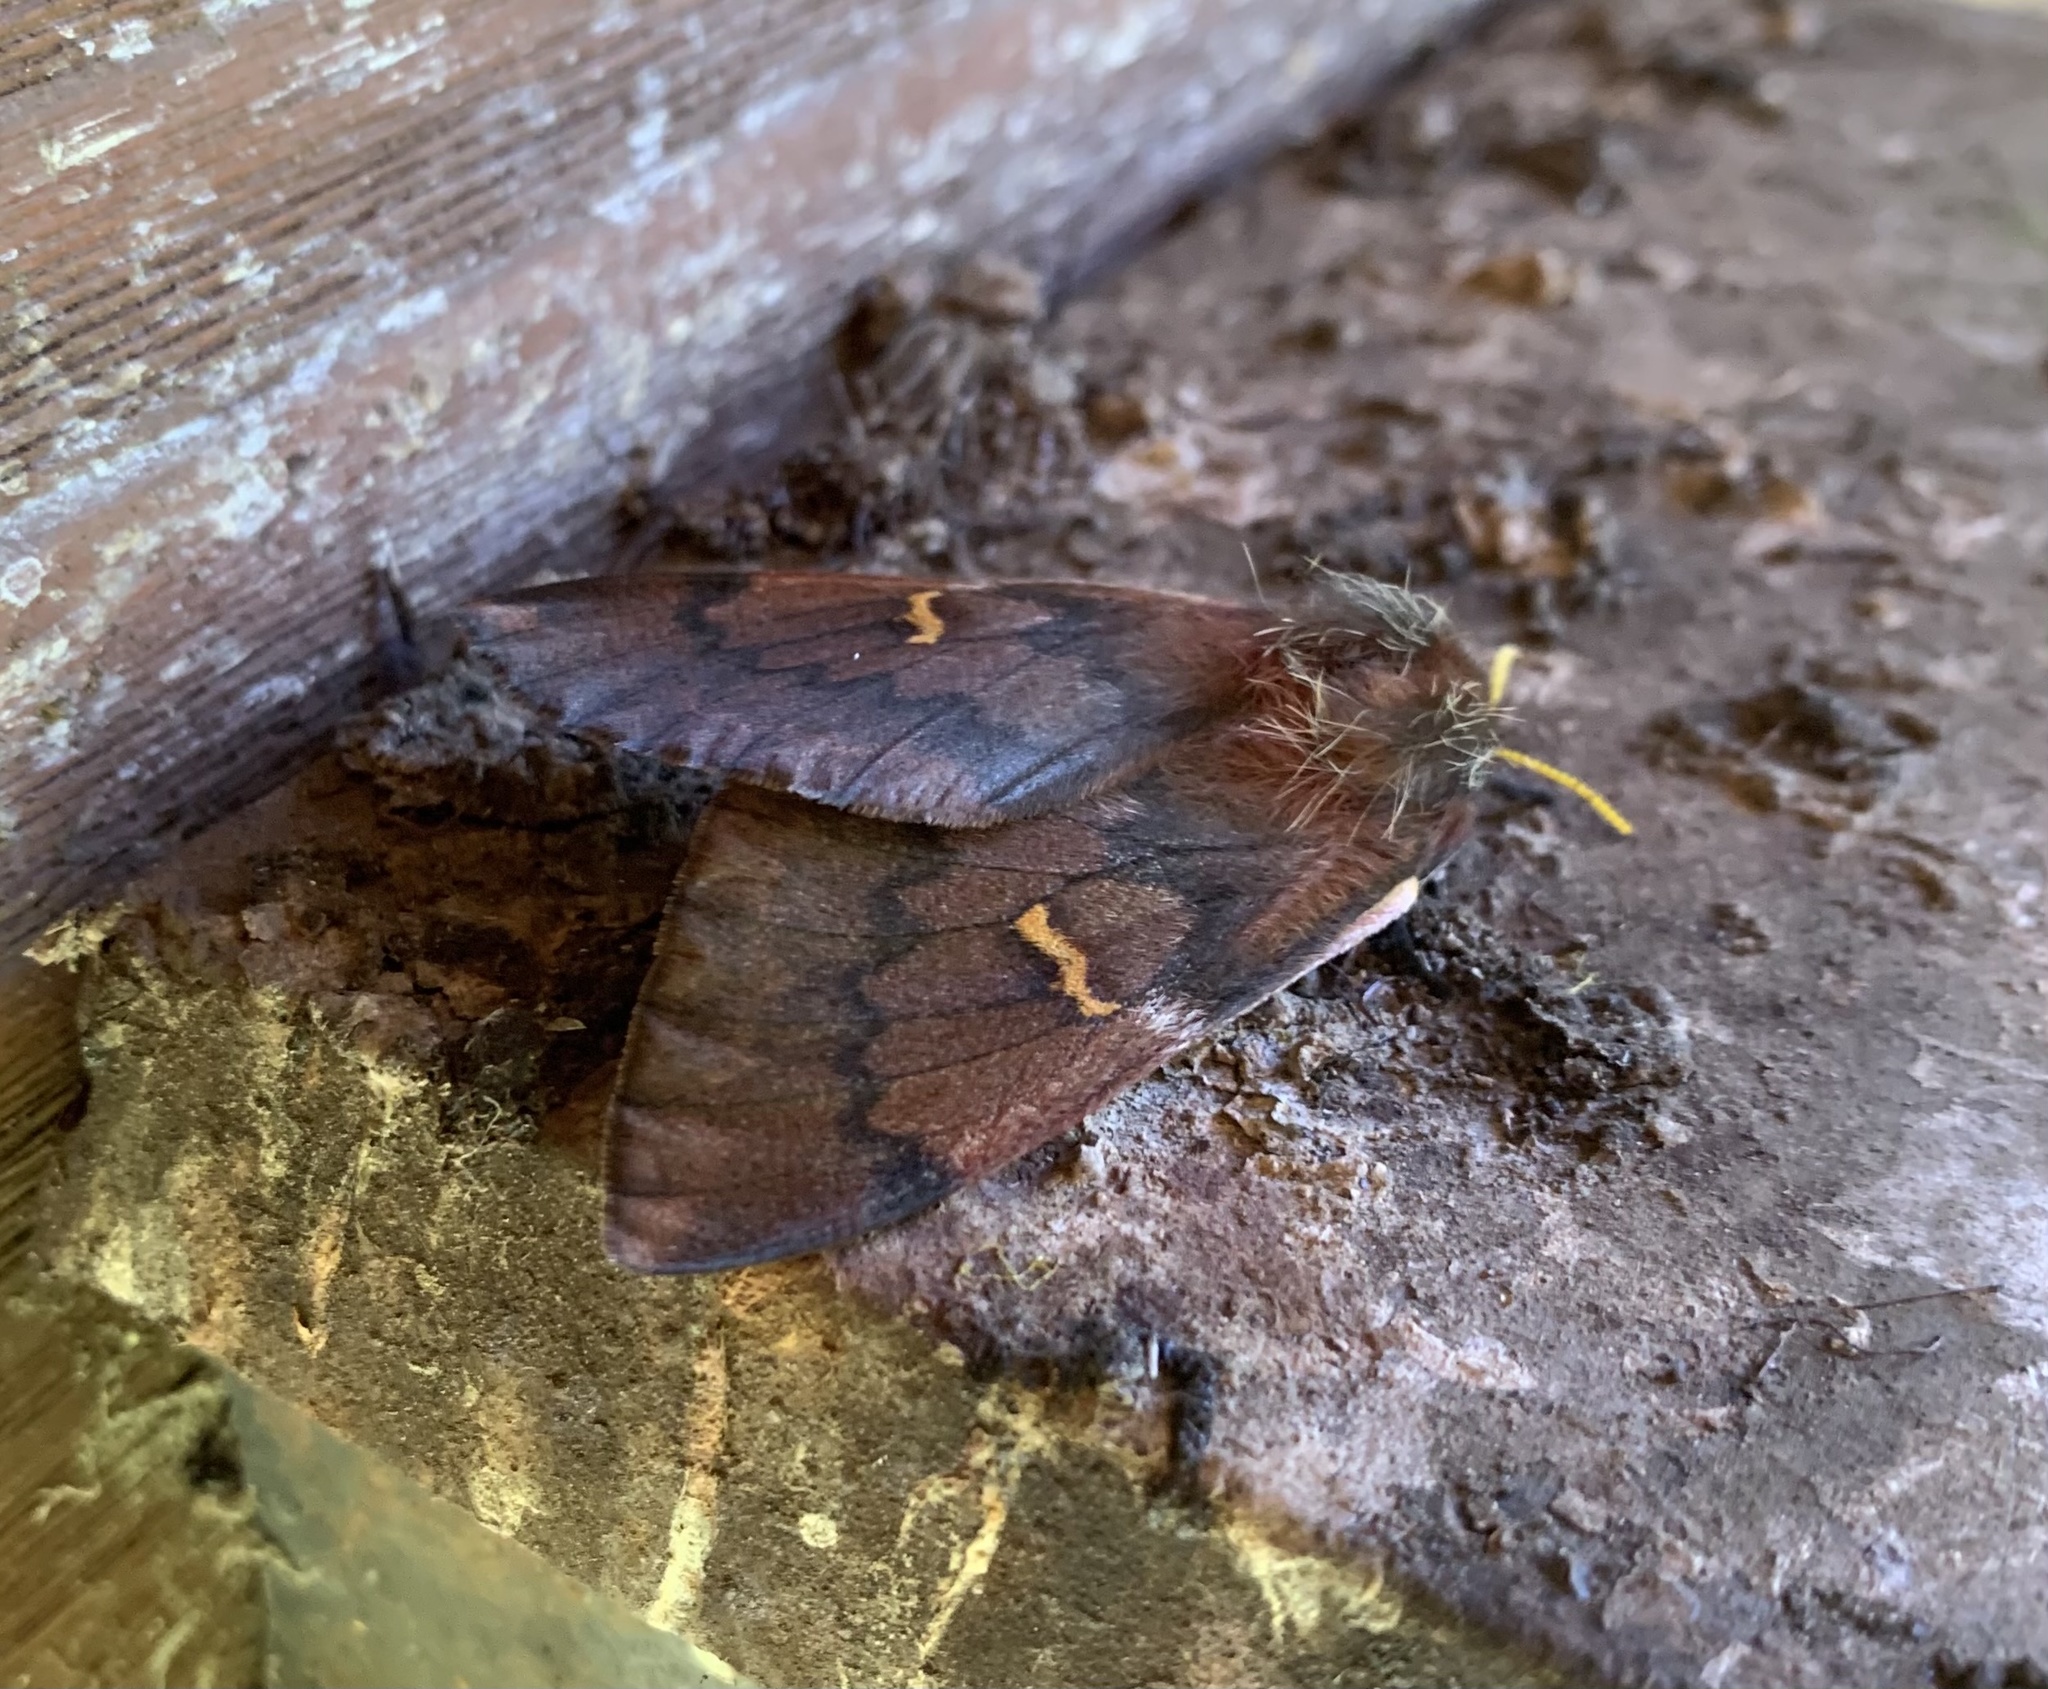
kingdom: Animalia
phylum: Arthropoda
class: Insecta
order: Lepidoptera
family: Saturniidae
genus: Ormiscodes
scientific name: Ormiscodes joiceyi
